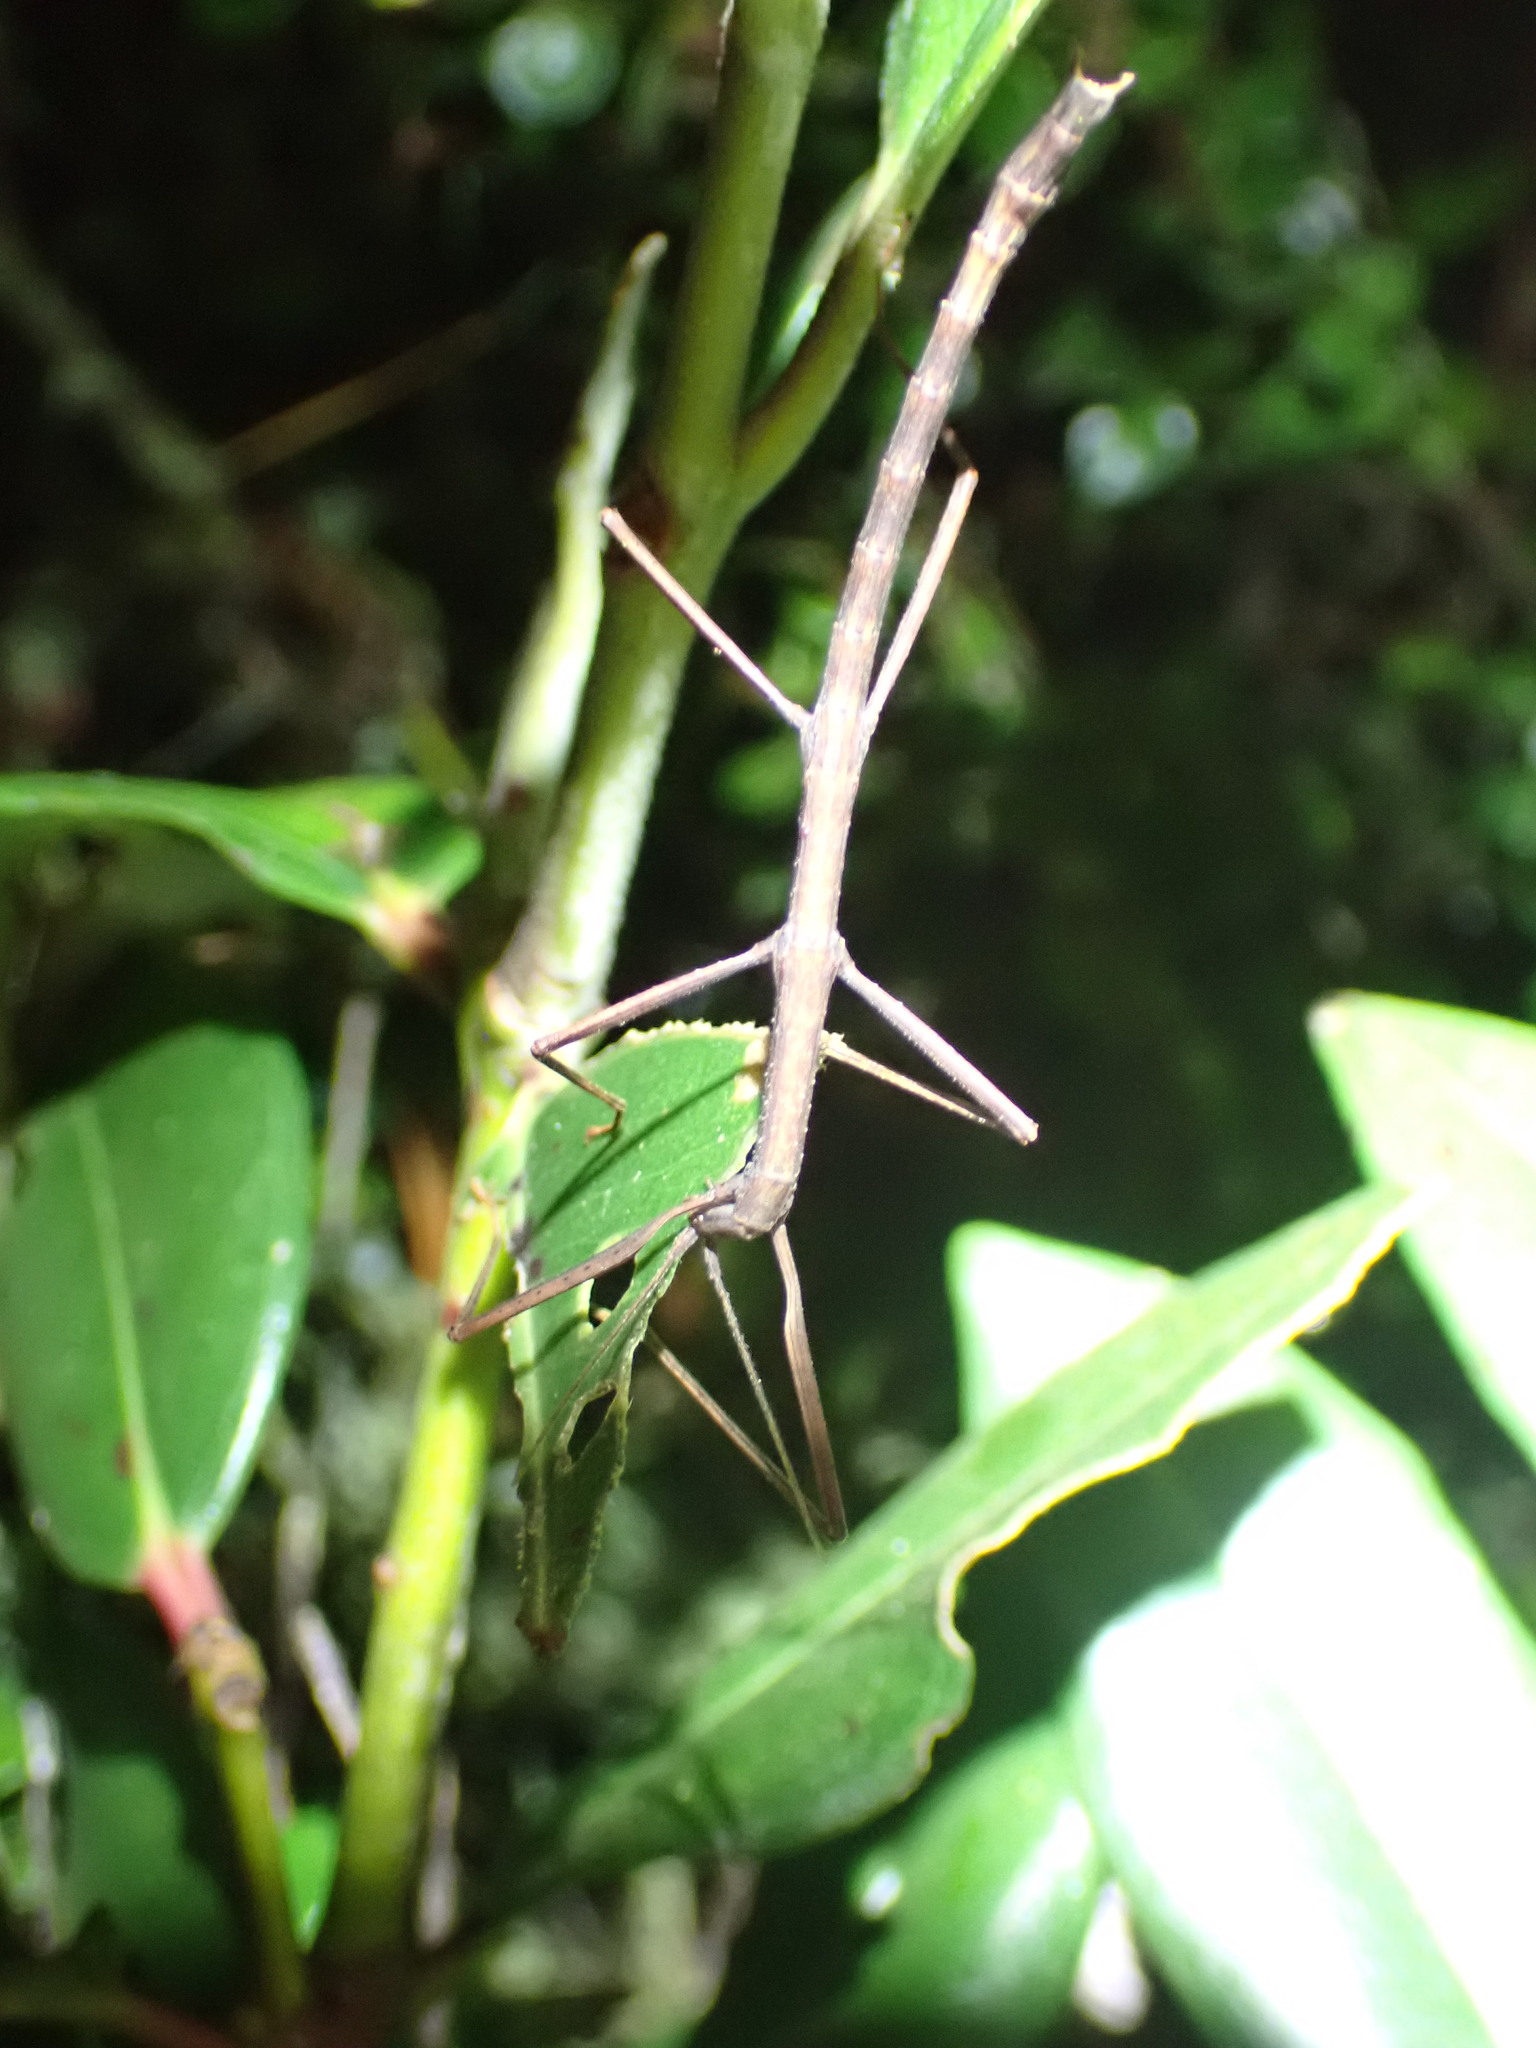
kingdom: Animalia
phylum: Arthropoda
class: Insecta
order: Phasmida
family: Phasmatidae
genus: Tectarchus
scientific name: Tectarchus huttoni
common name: The common ridge-backed stick insect
